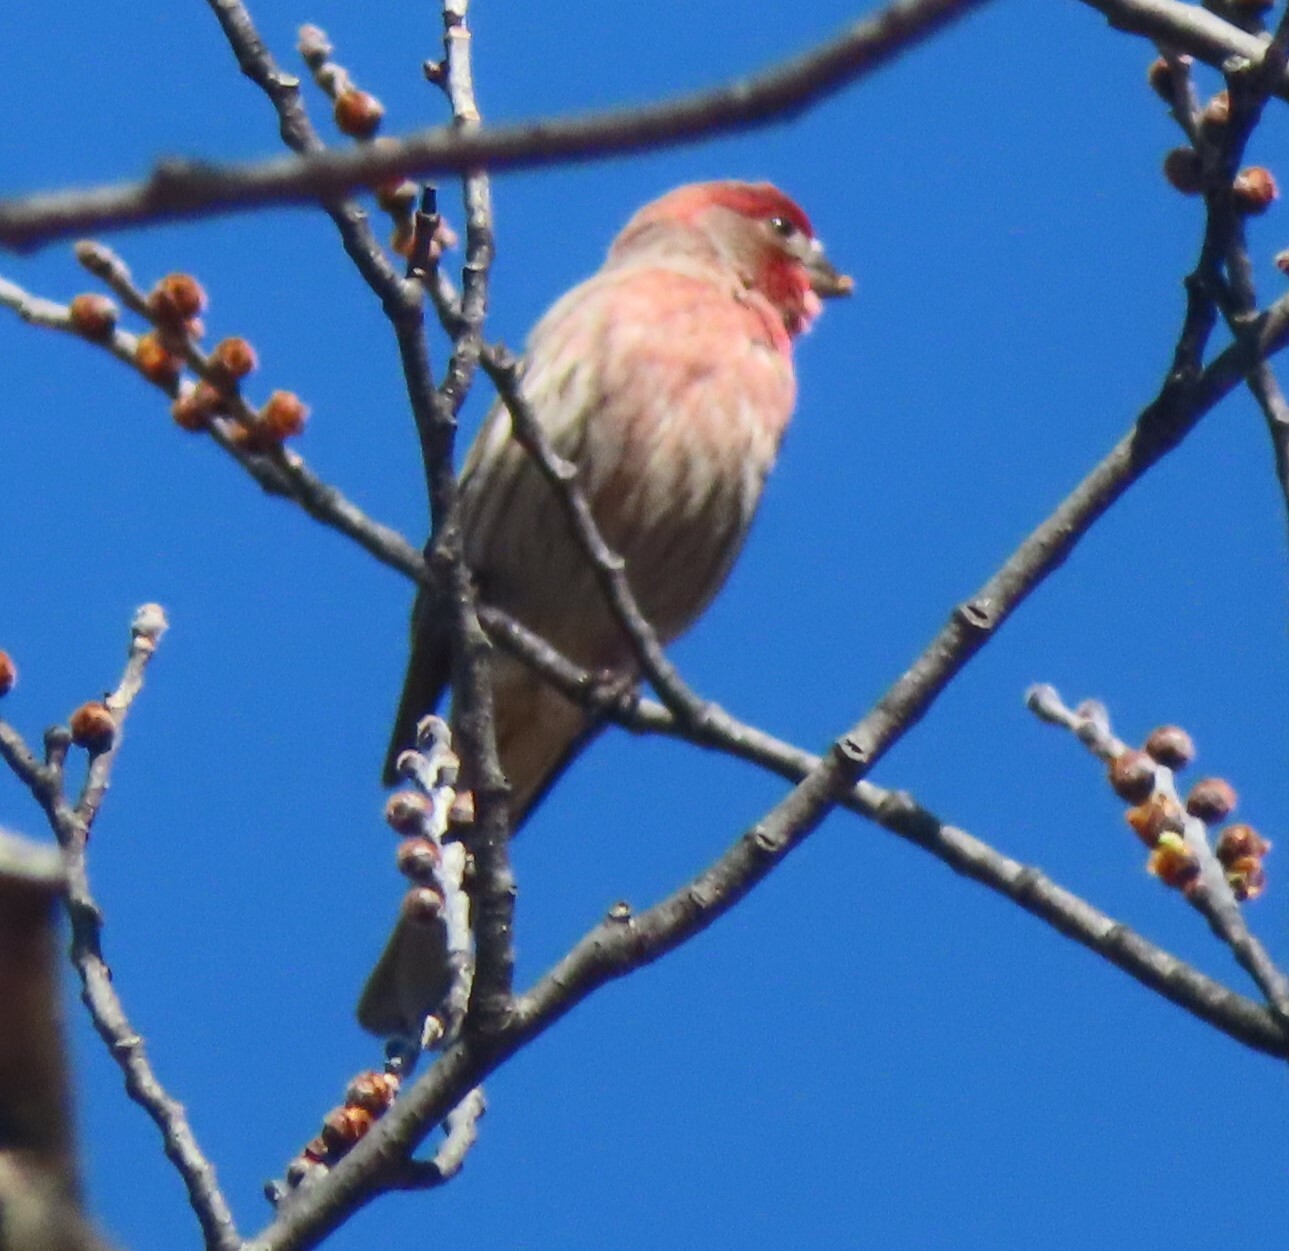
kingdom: Animalia
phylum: Chordata
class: Aves
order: Passeriformes
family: Fringillidae
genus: Haemorhous
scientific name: Haemorhous mexicanus
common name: House finch
